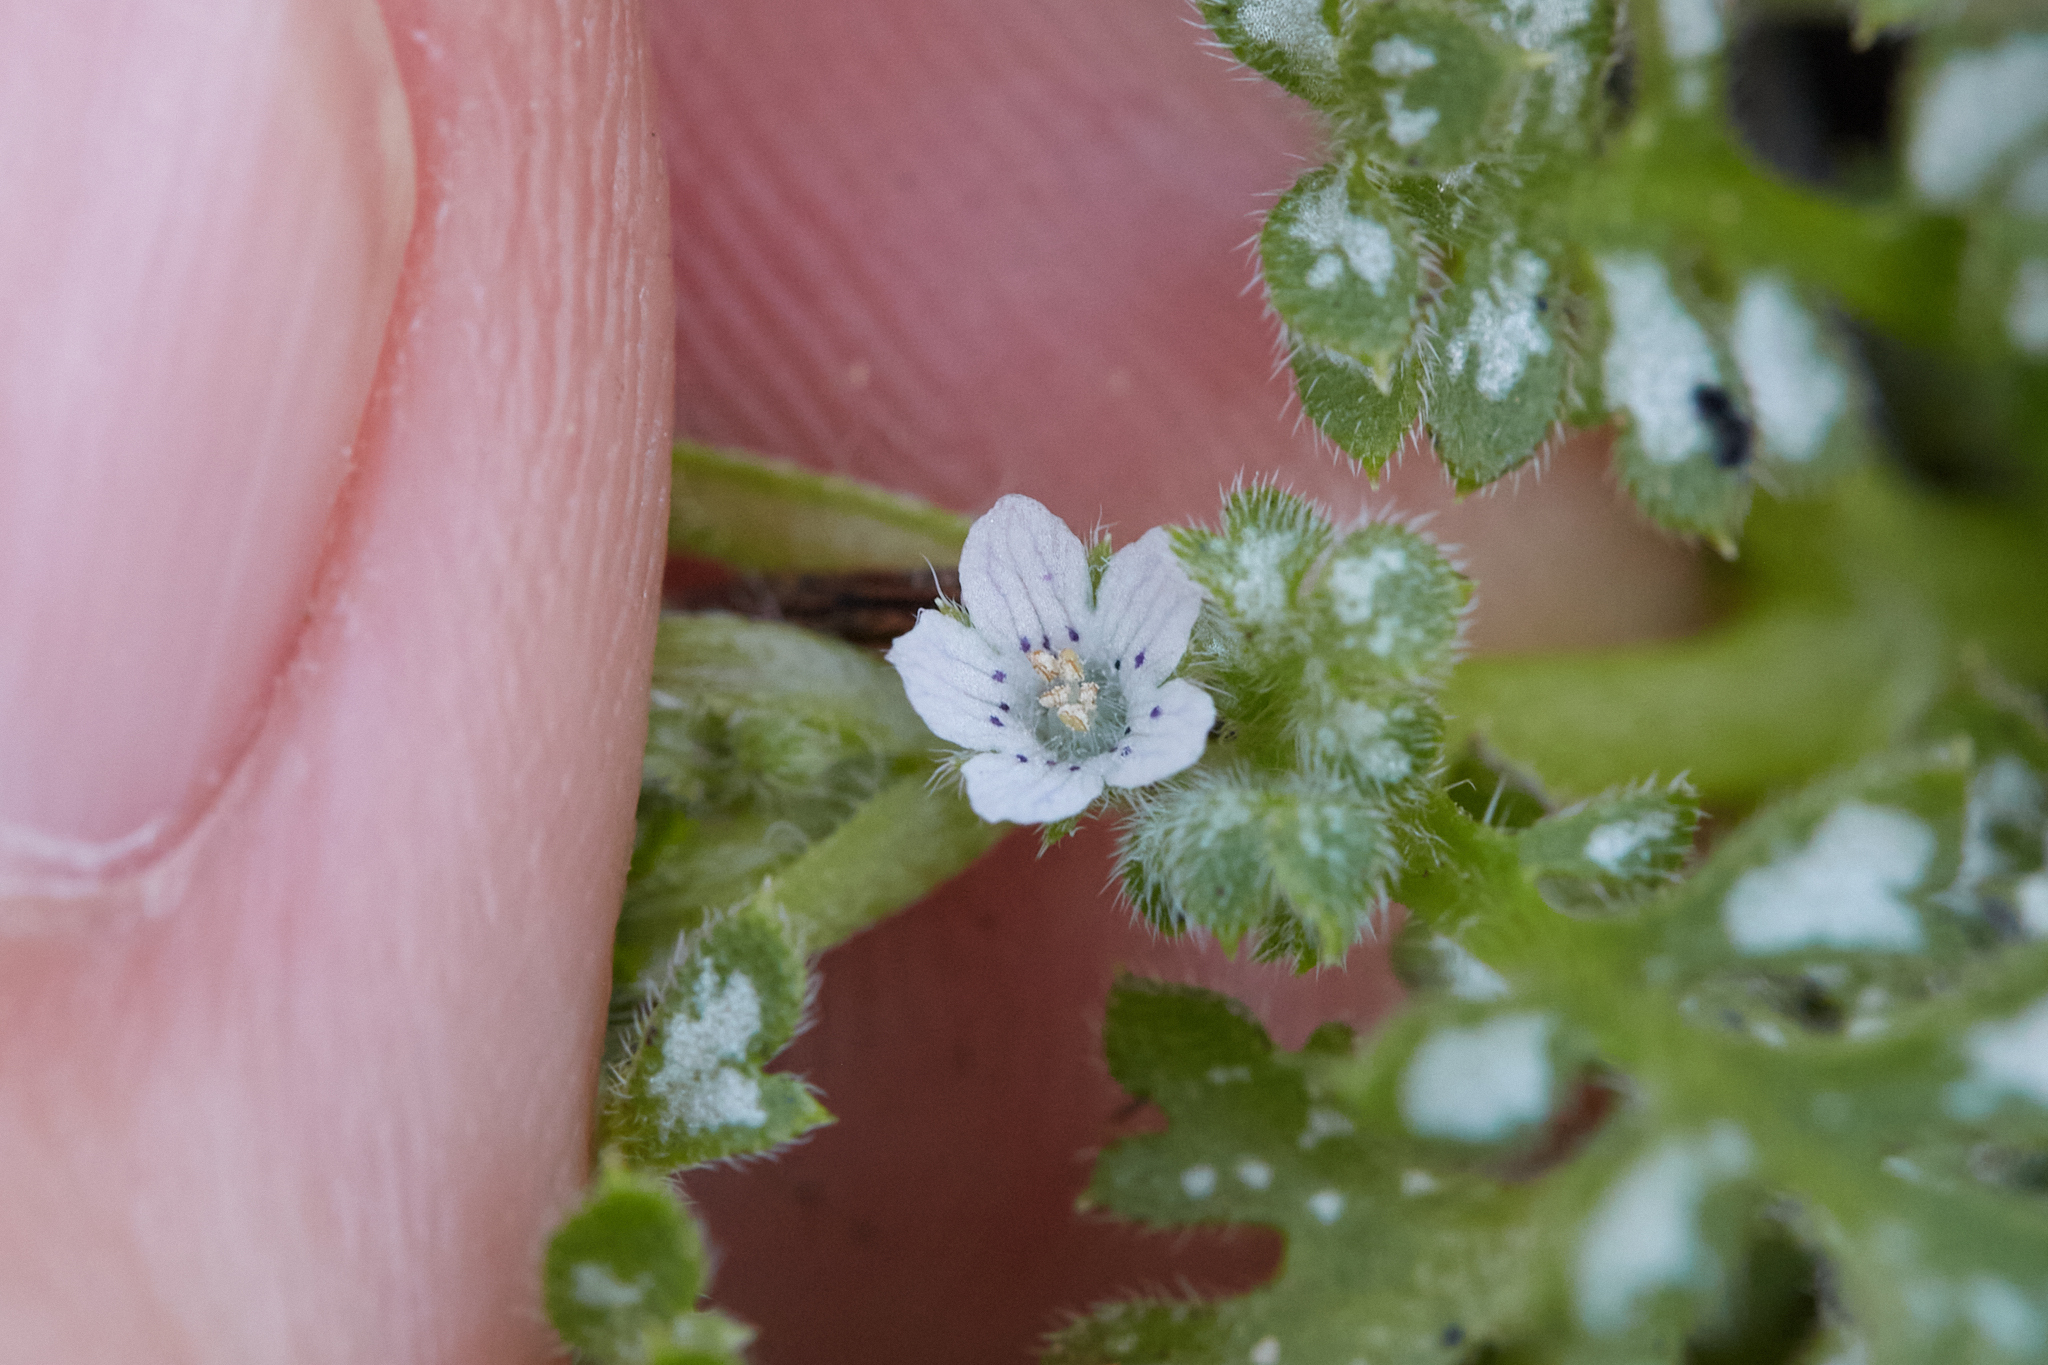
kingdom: Plantae
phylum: Tracheophyta
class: Magnoliopsida
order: Boraginales
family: Hydrophyllaceae
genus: Nemophila
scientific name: Nemophila pedunculata
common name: Little-foot baby-blue-eyes
